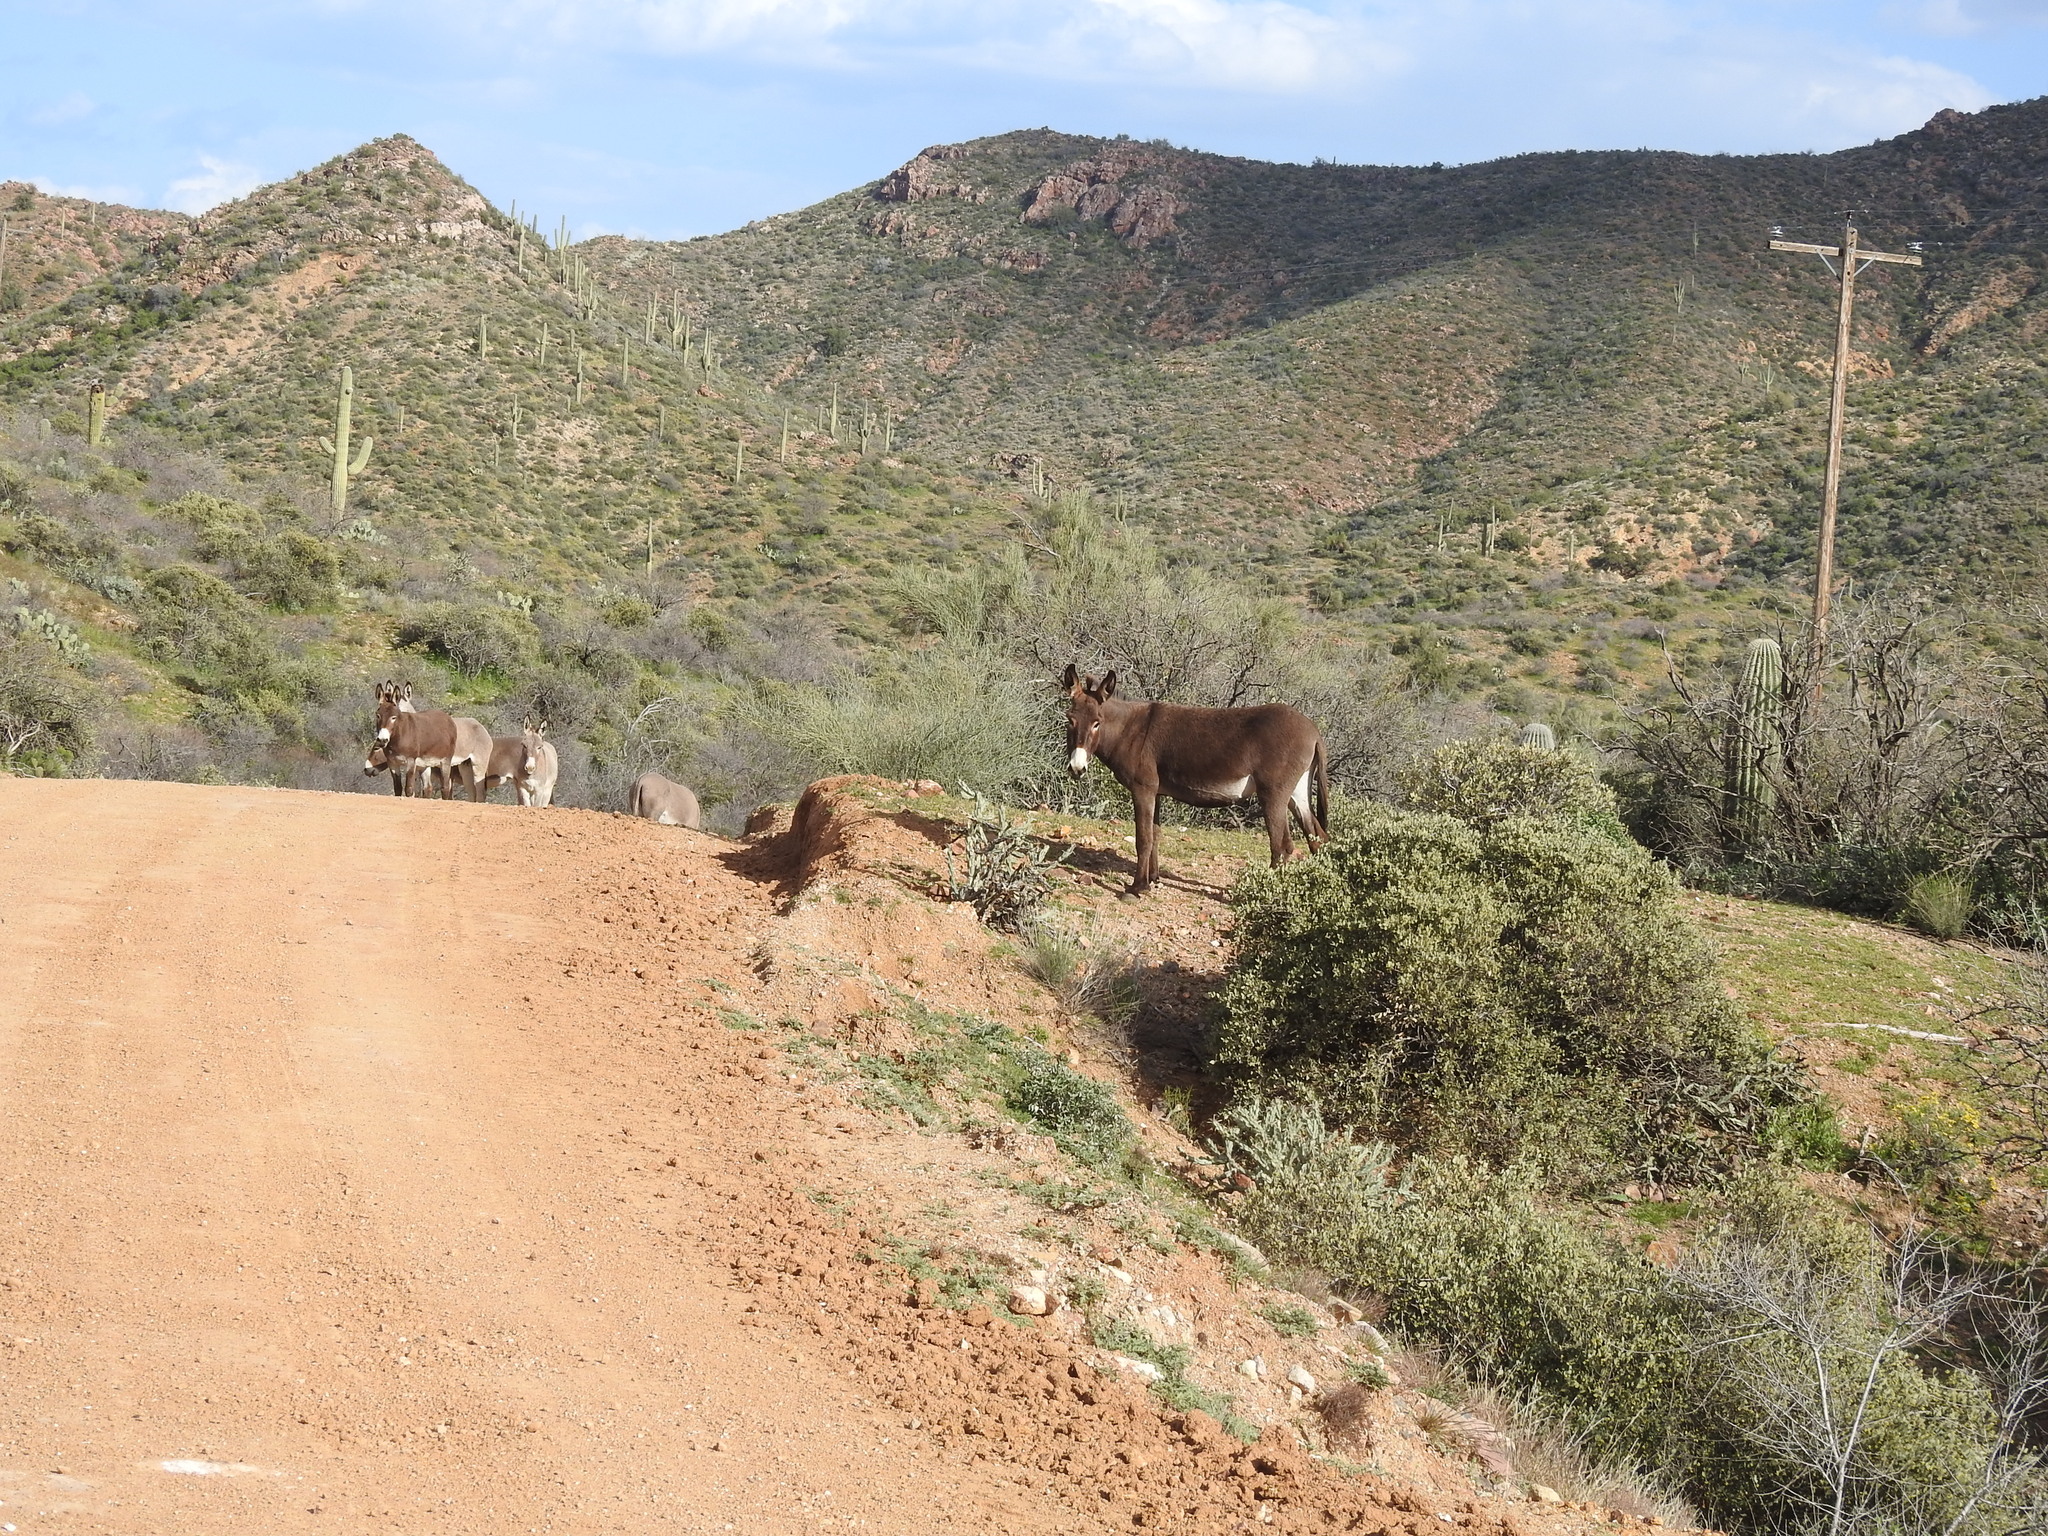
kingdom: Animalia
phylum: Chordata
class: Mammalia
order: Perissodactyla
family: Equidae
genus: Equus
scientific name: Equus asinus
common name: Ass
